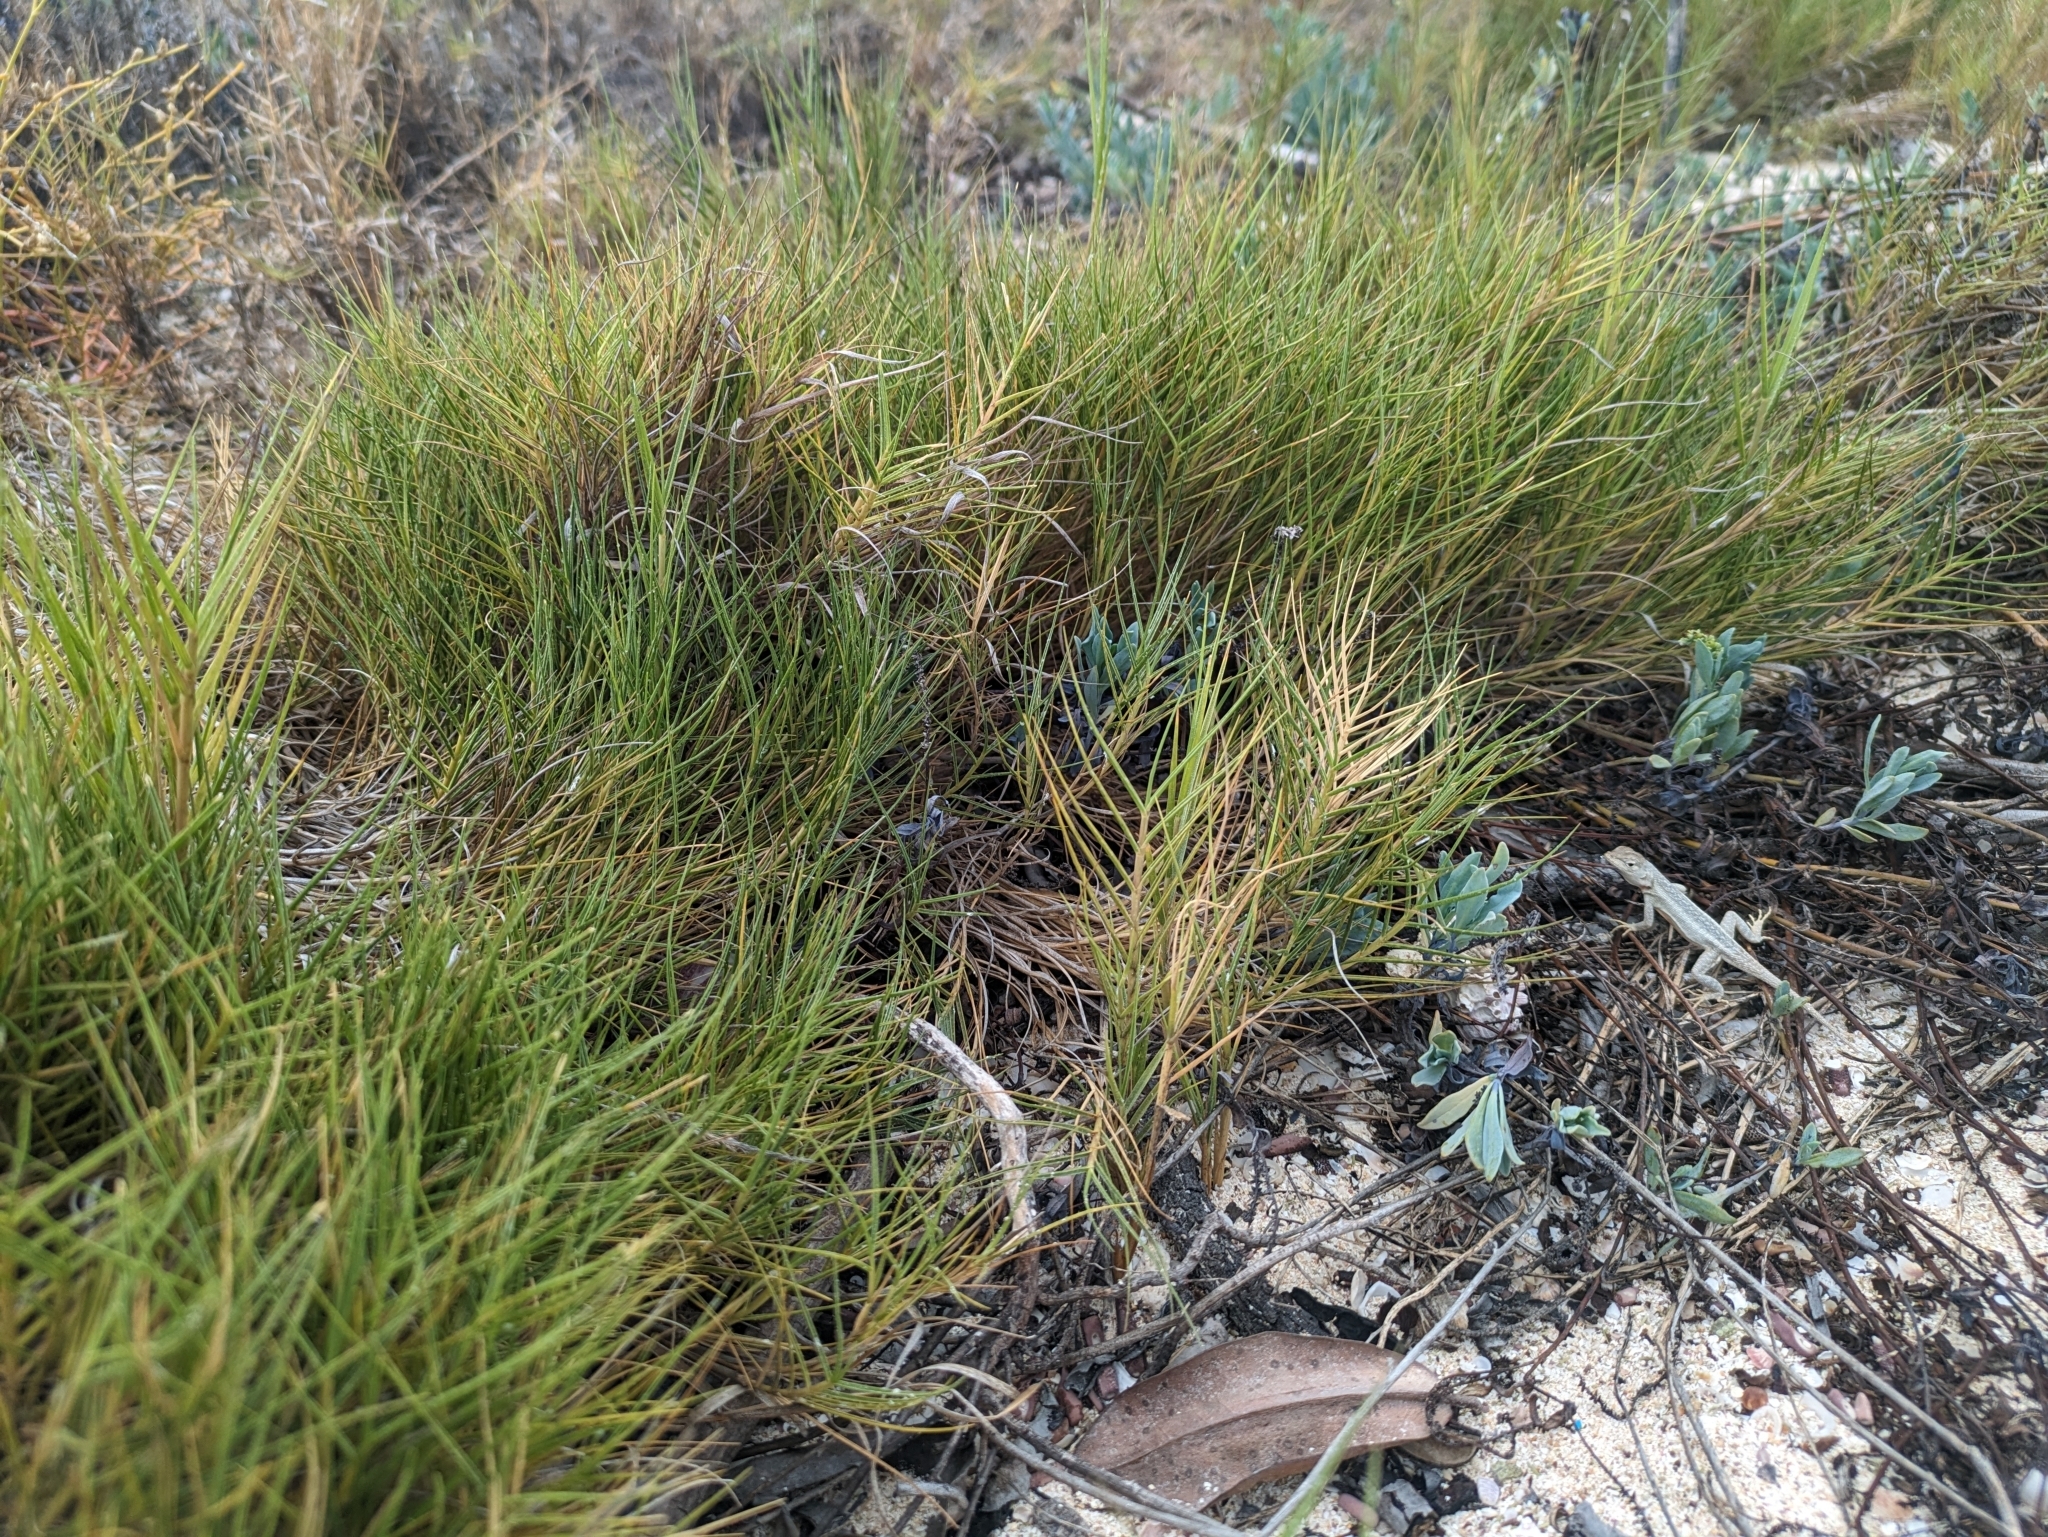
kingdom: Plantae
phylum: Tracheophyta
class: Liliopsida
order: Poales
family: Poaceae
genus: Sporobolus
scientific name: Sporobolus virginicus
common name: Beach dropseed
